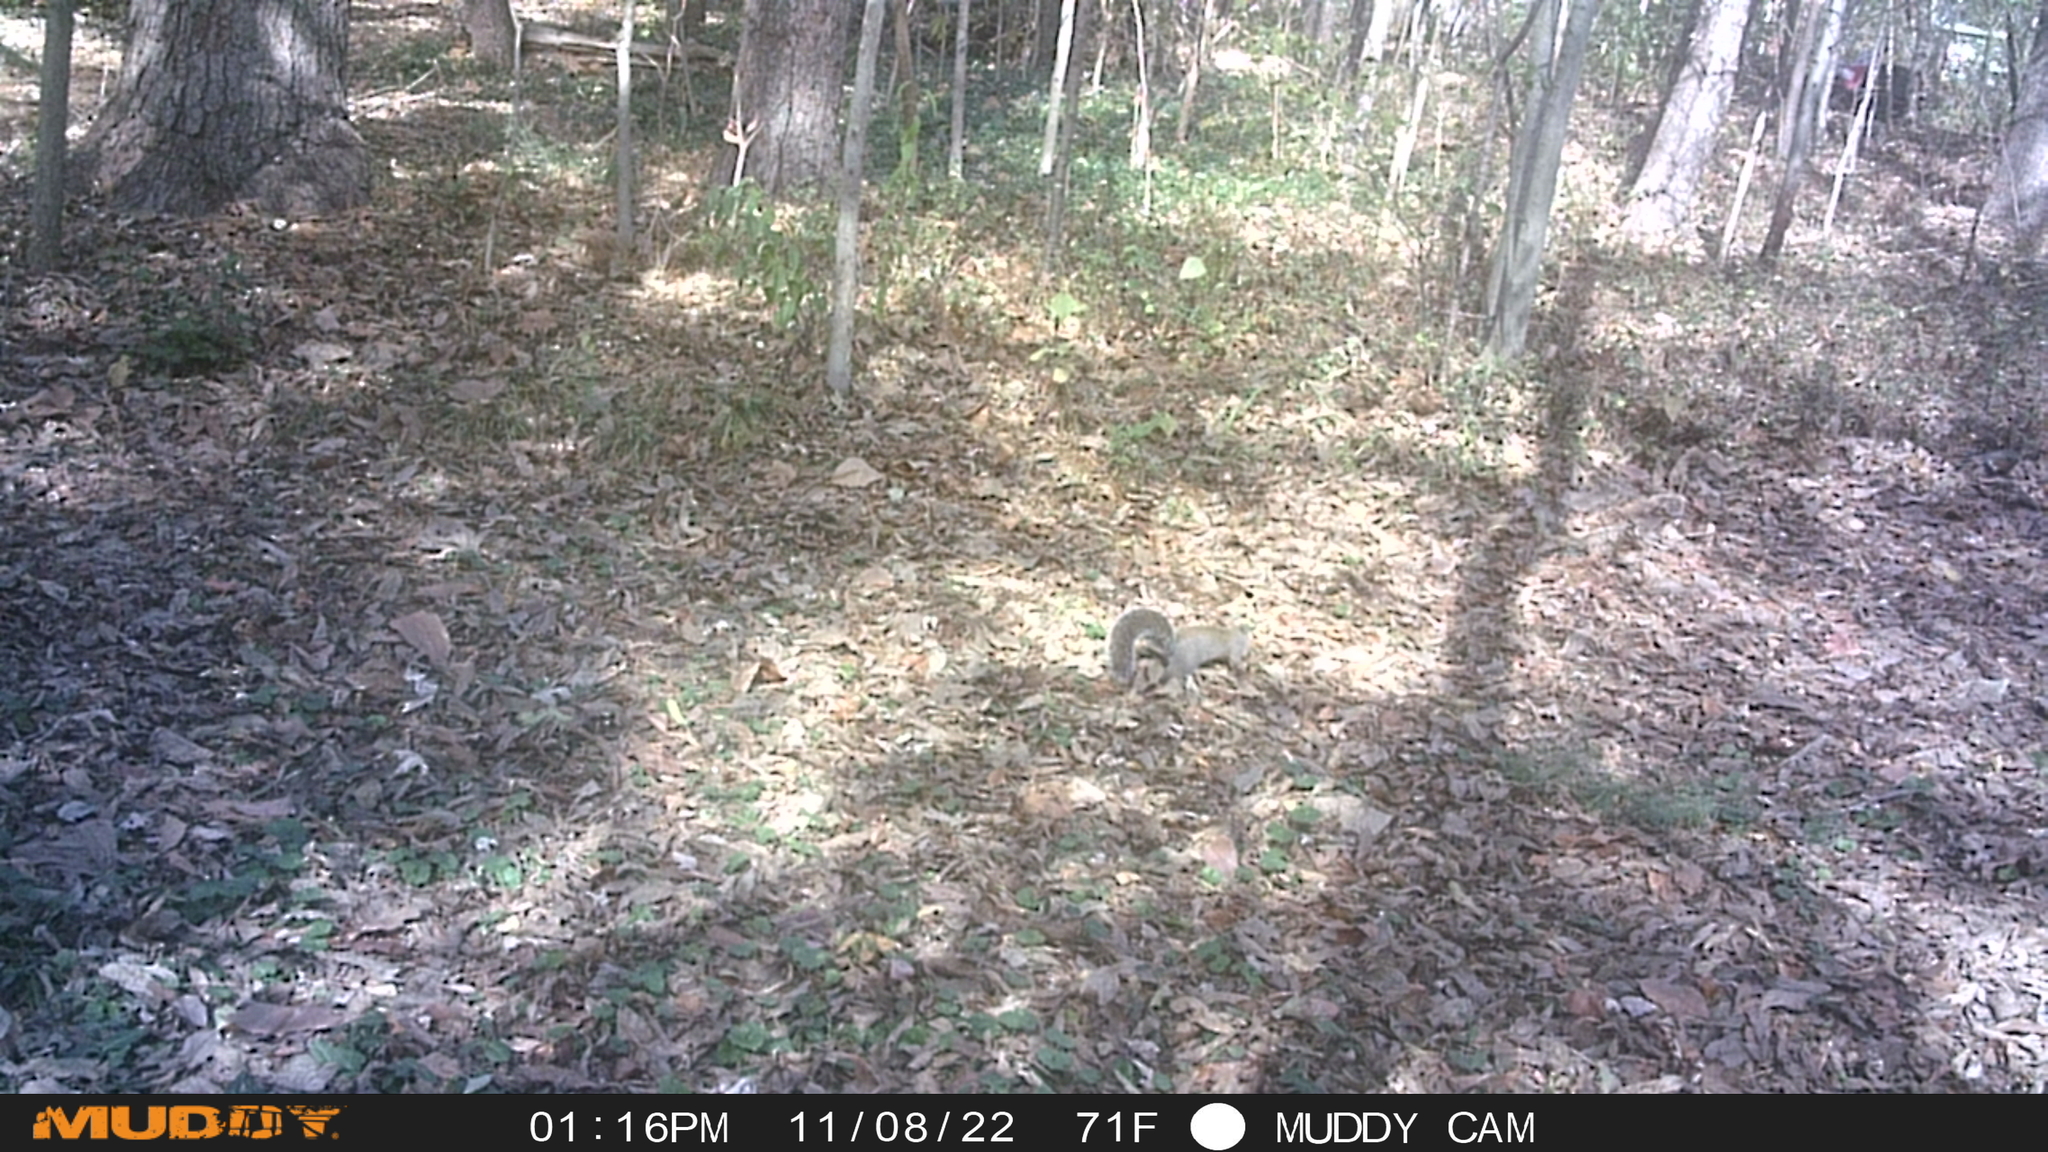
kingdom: Animalia
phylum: Chordata
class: Mammalia
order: Rodentia
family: Sciuridae
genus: Sciurus
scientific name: Sciurus carolinensis
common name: Eastern gray squirrel
